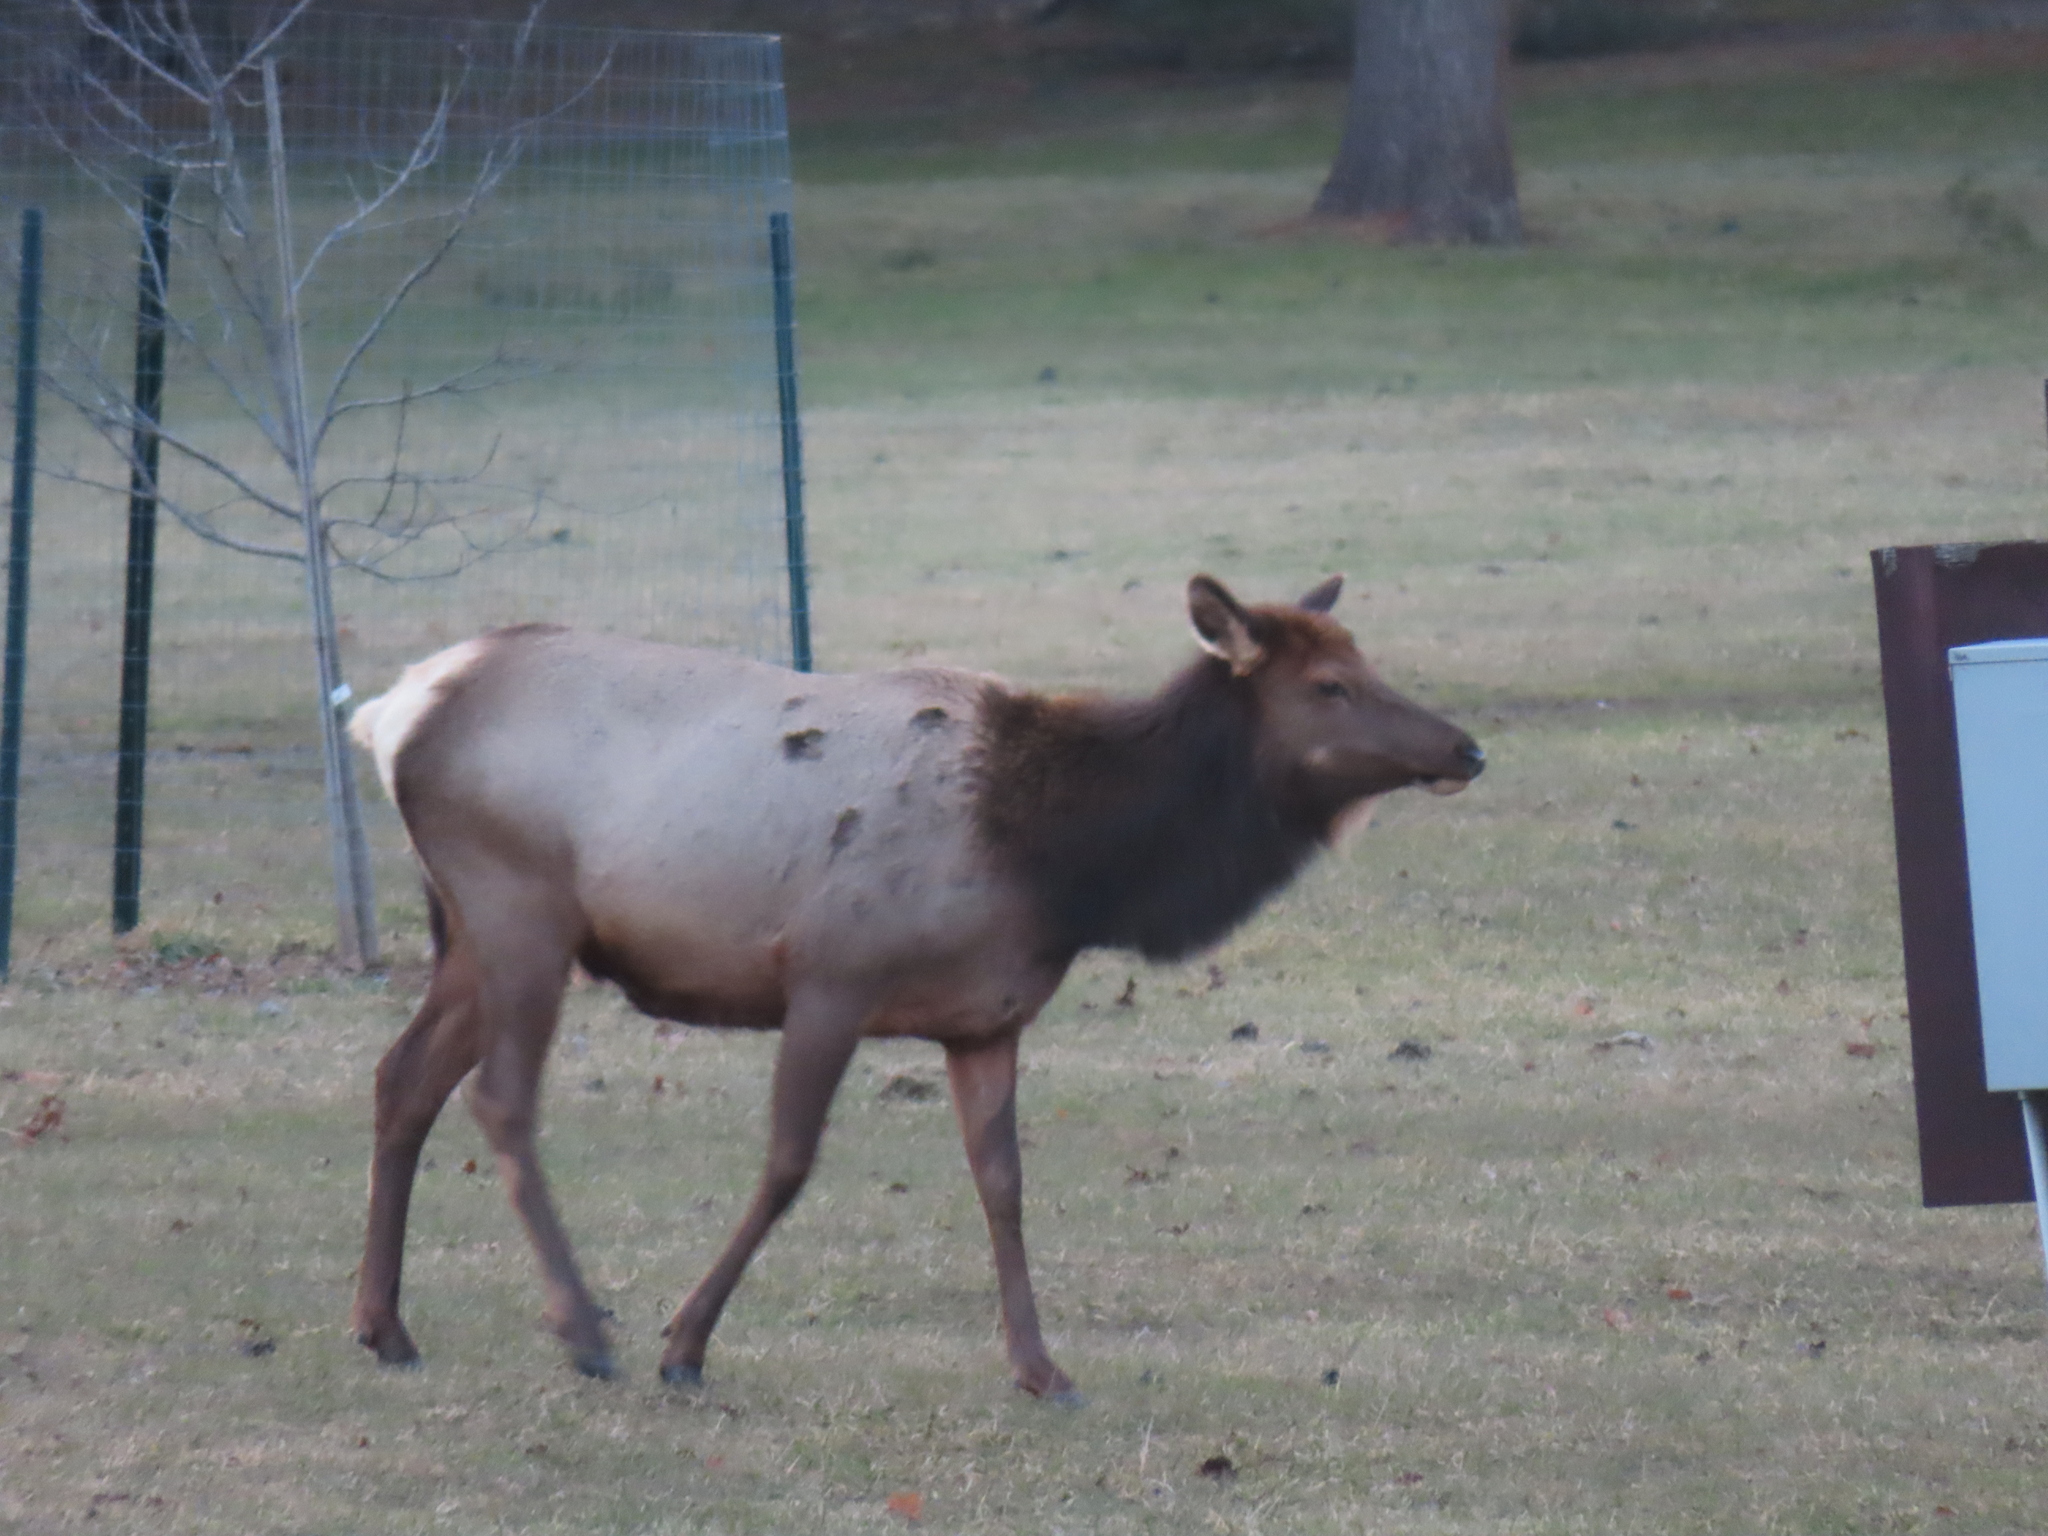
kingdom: Animalia
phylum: Chordata
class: Mammalia
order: Artiodactyla
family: Cervidae
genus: Cervus
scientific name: Cervus elaphus
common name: Red deer
